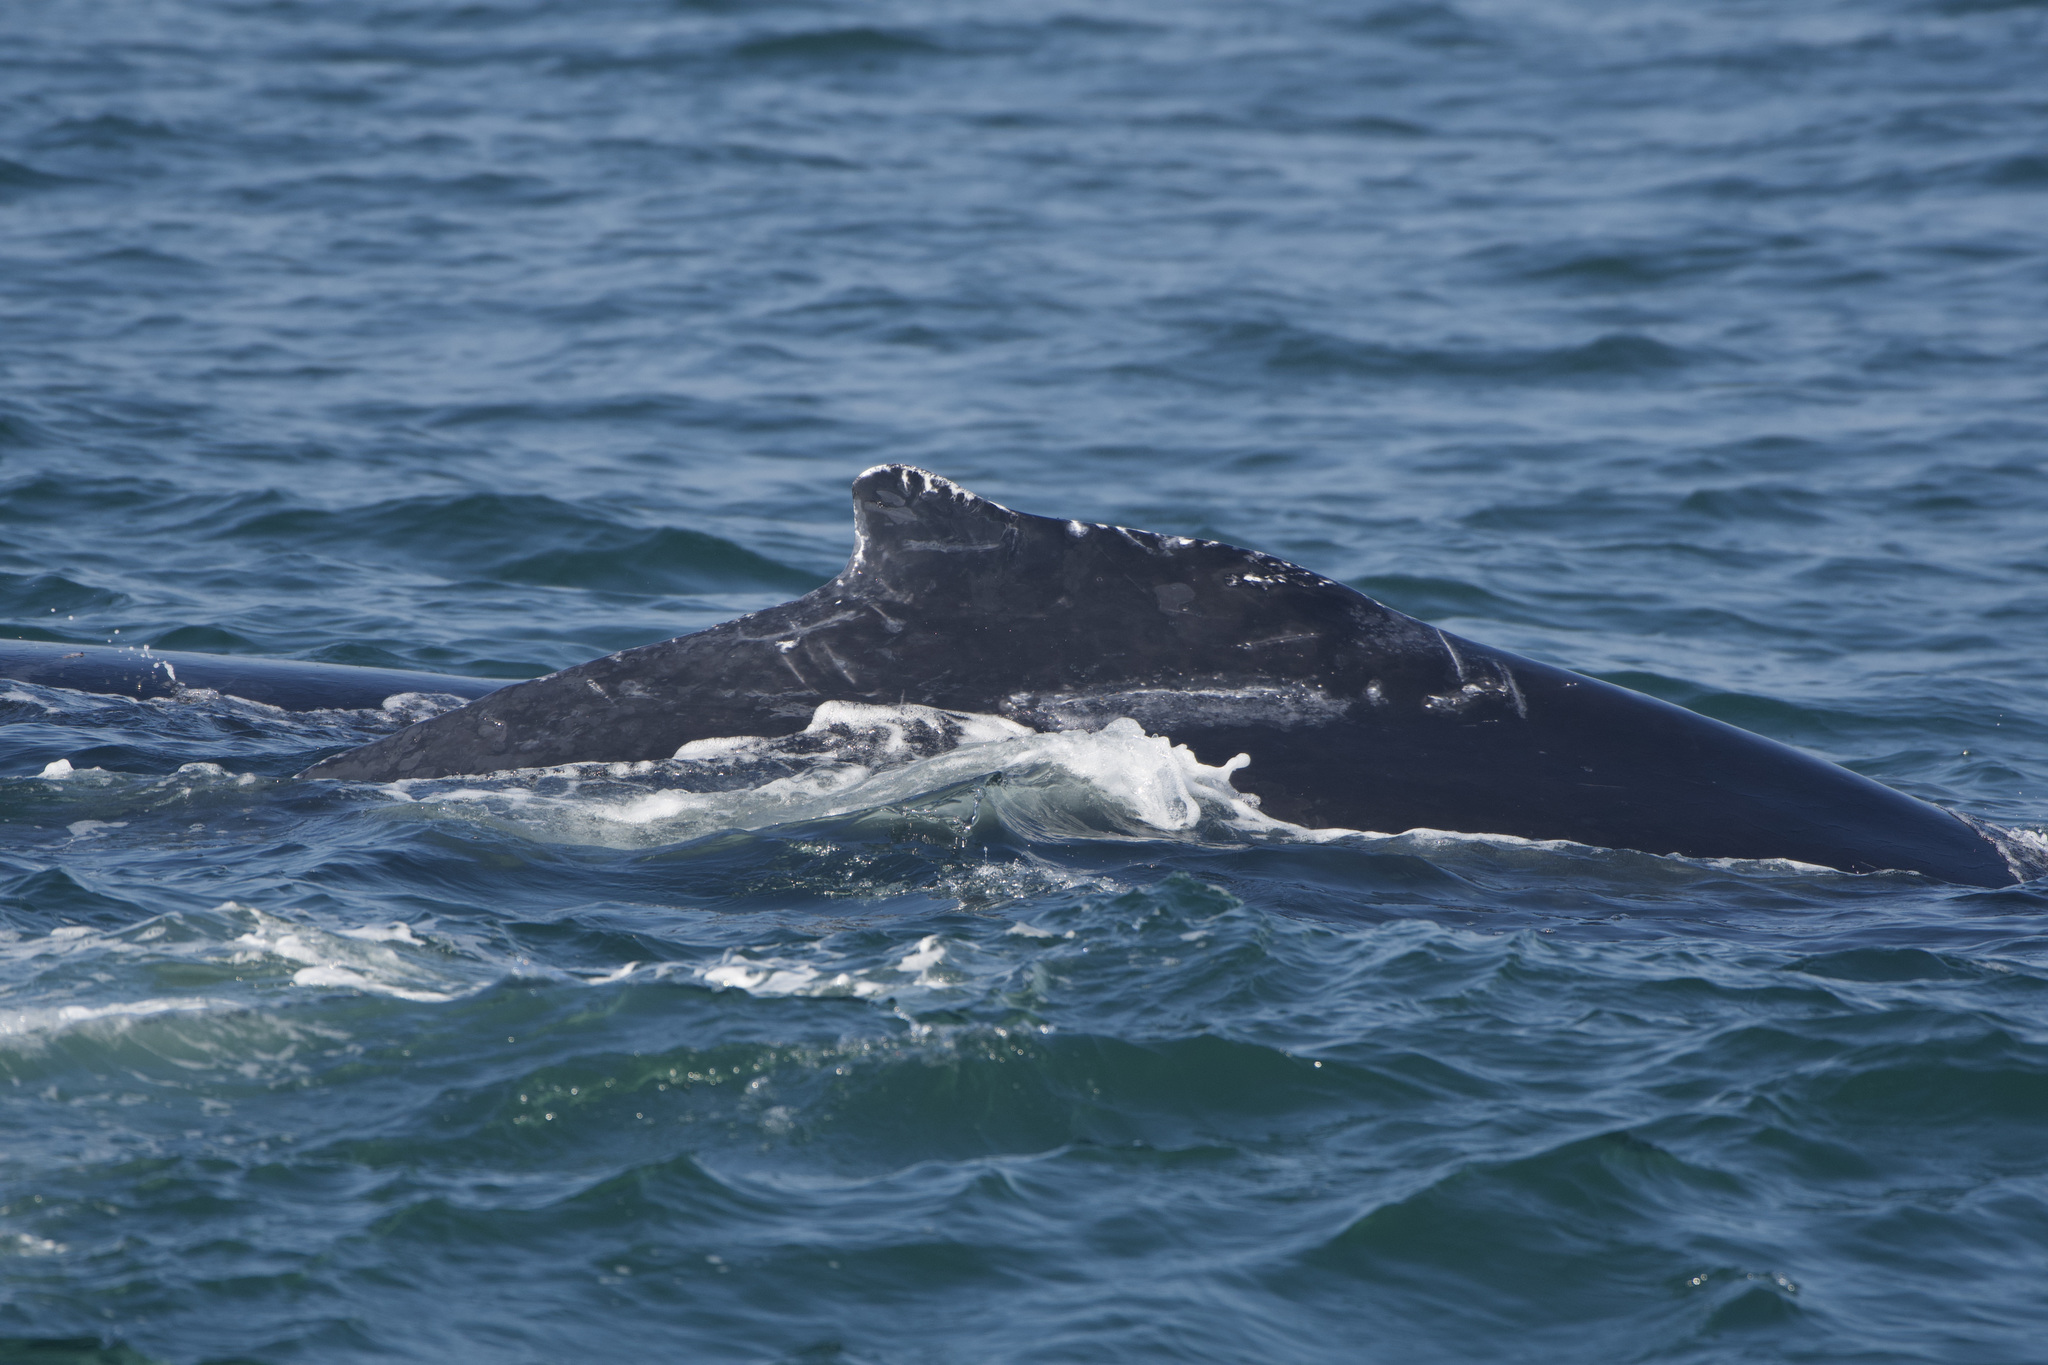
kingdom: Animalia
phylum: Chordata
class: Mammalia
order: Cetacea
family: Balaenopteridae
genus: Megaptera
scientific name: Megaptera novaeangliae
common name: Humpback whale
